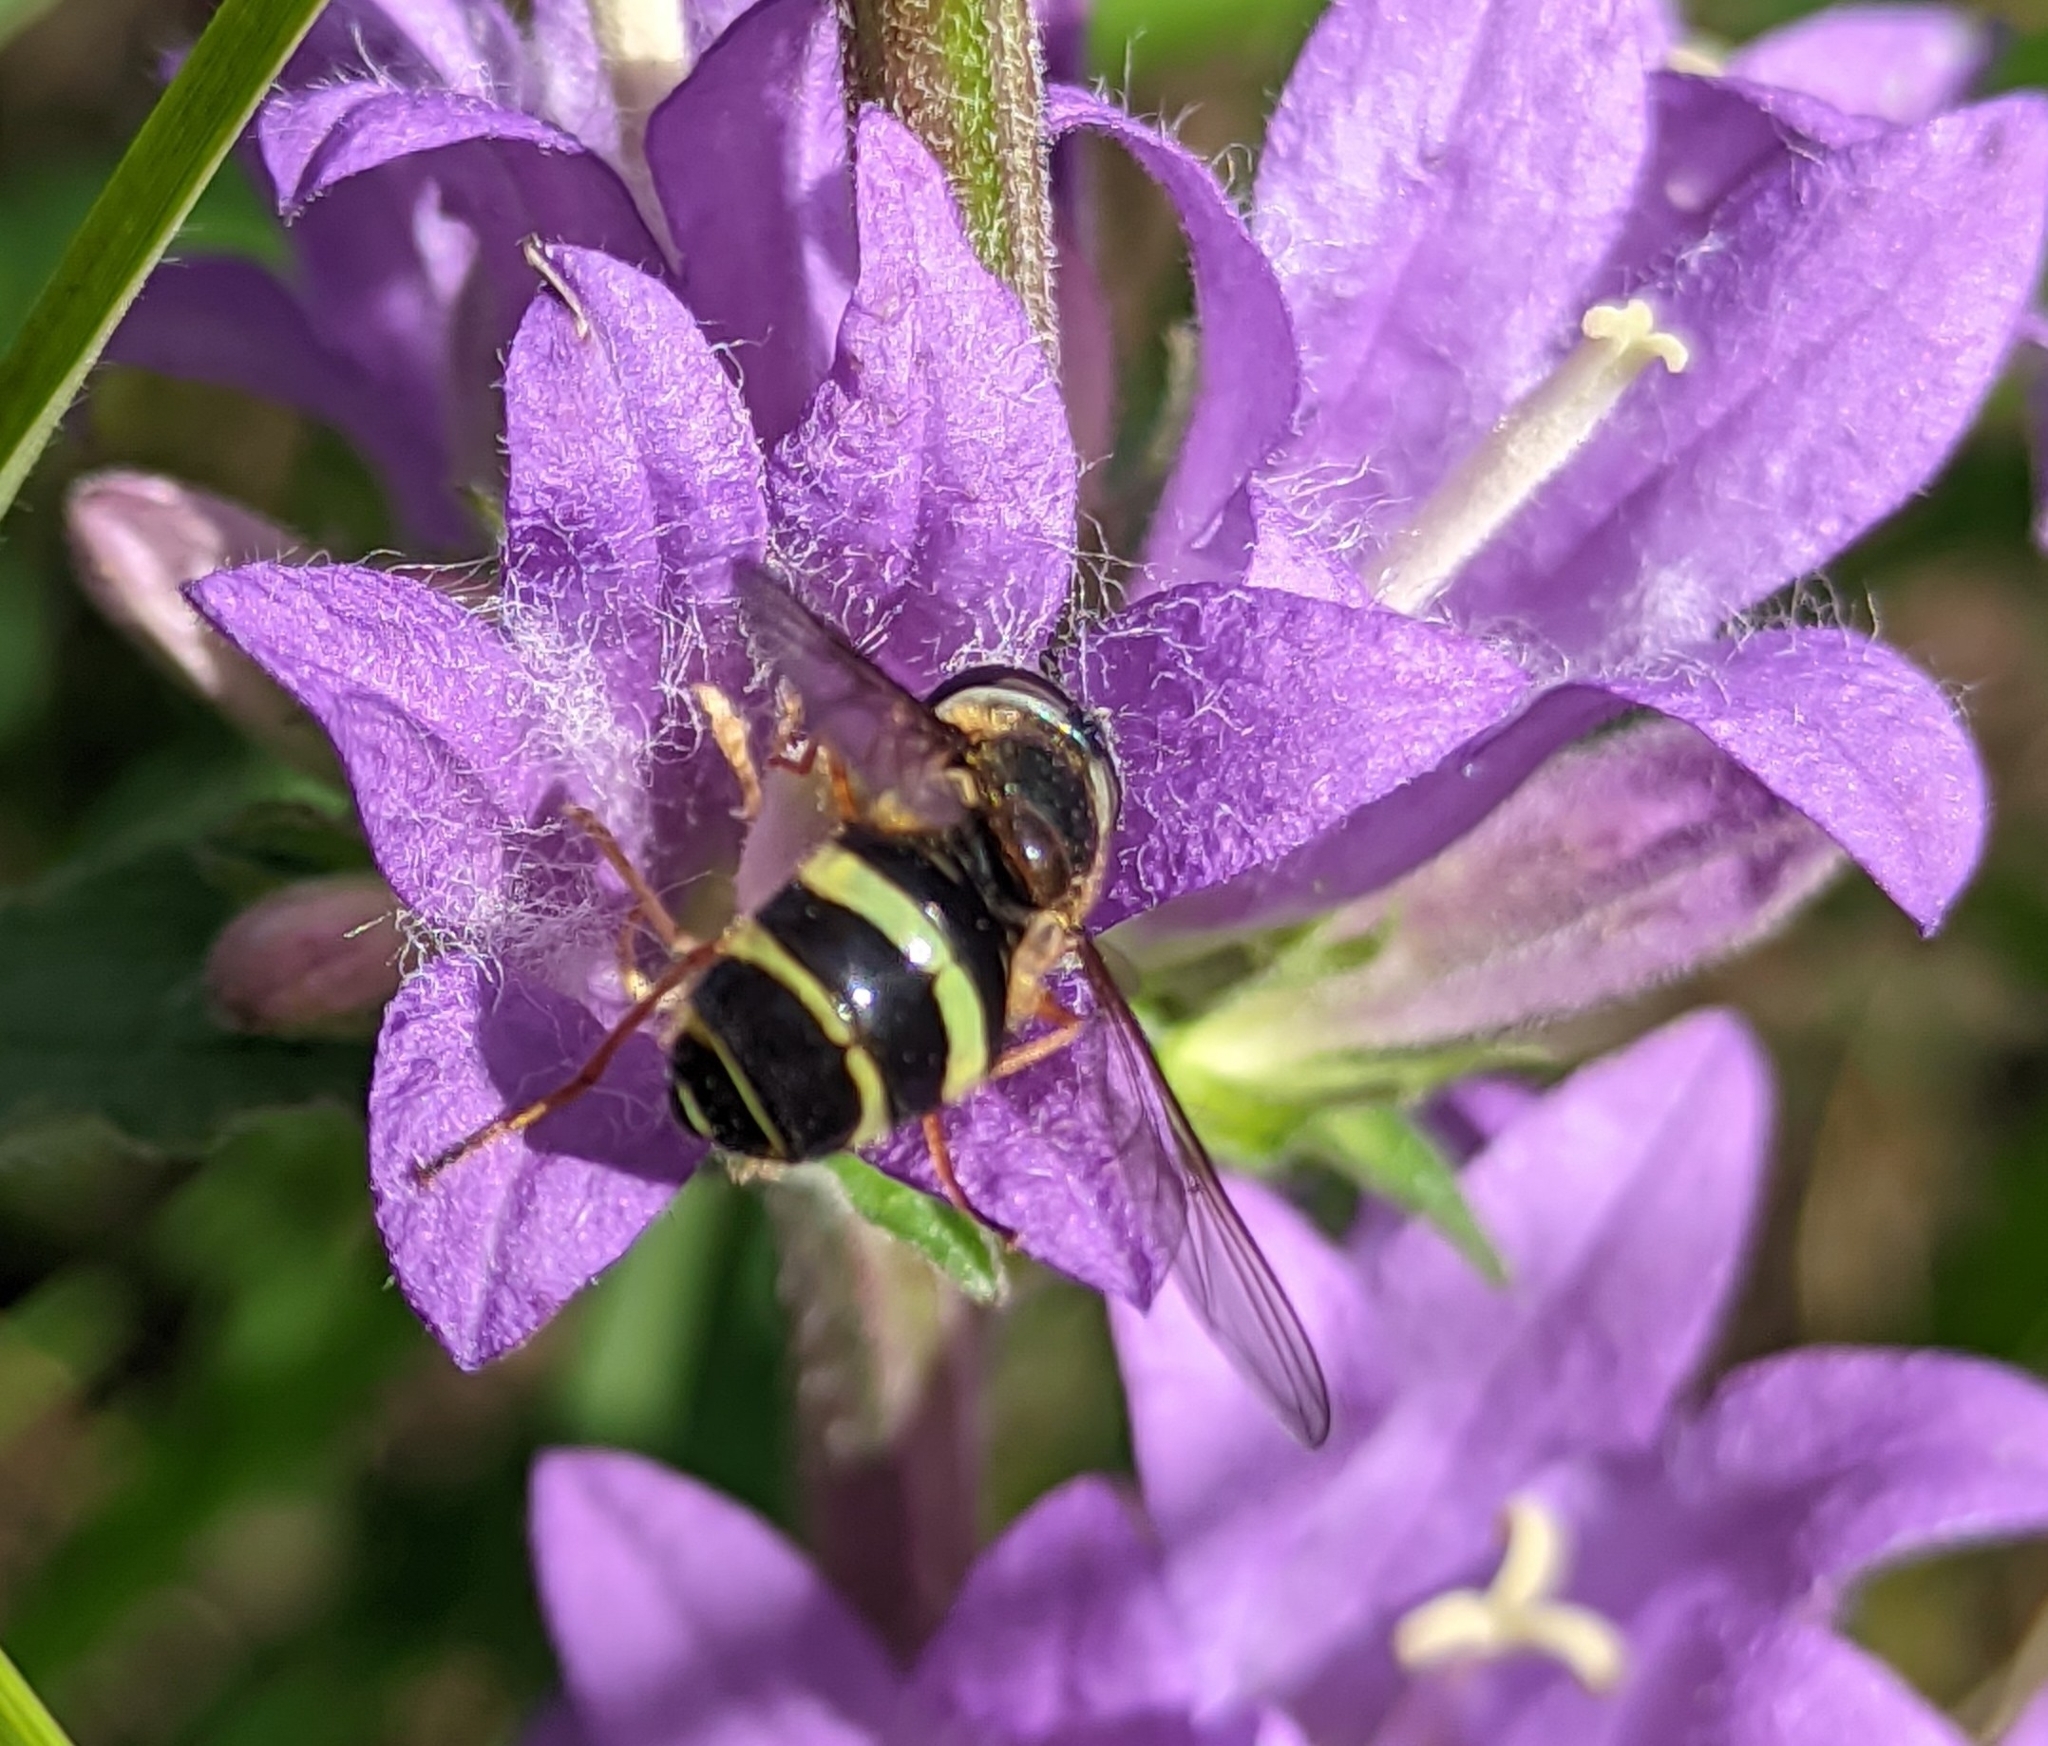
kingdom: Animalia
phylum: Arthropoda
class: Insecta
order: Diptera
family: Syrphidae
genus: Dasysyrphus
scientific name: Dasysyrphus tricinctus
